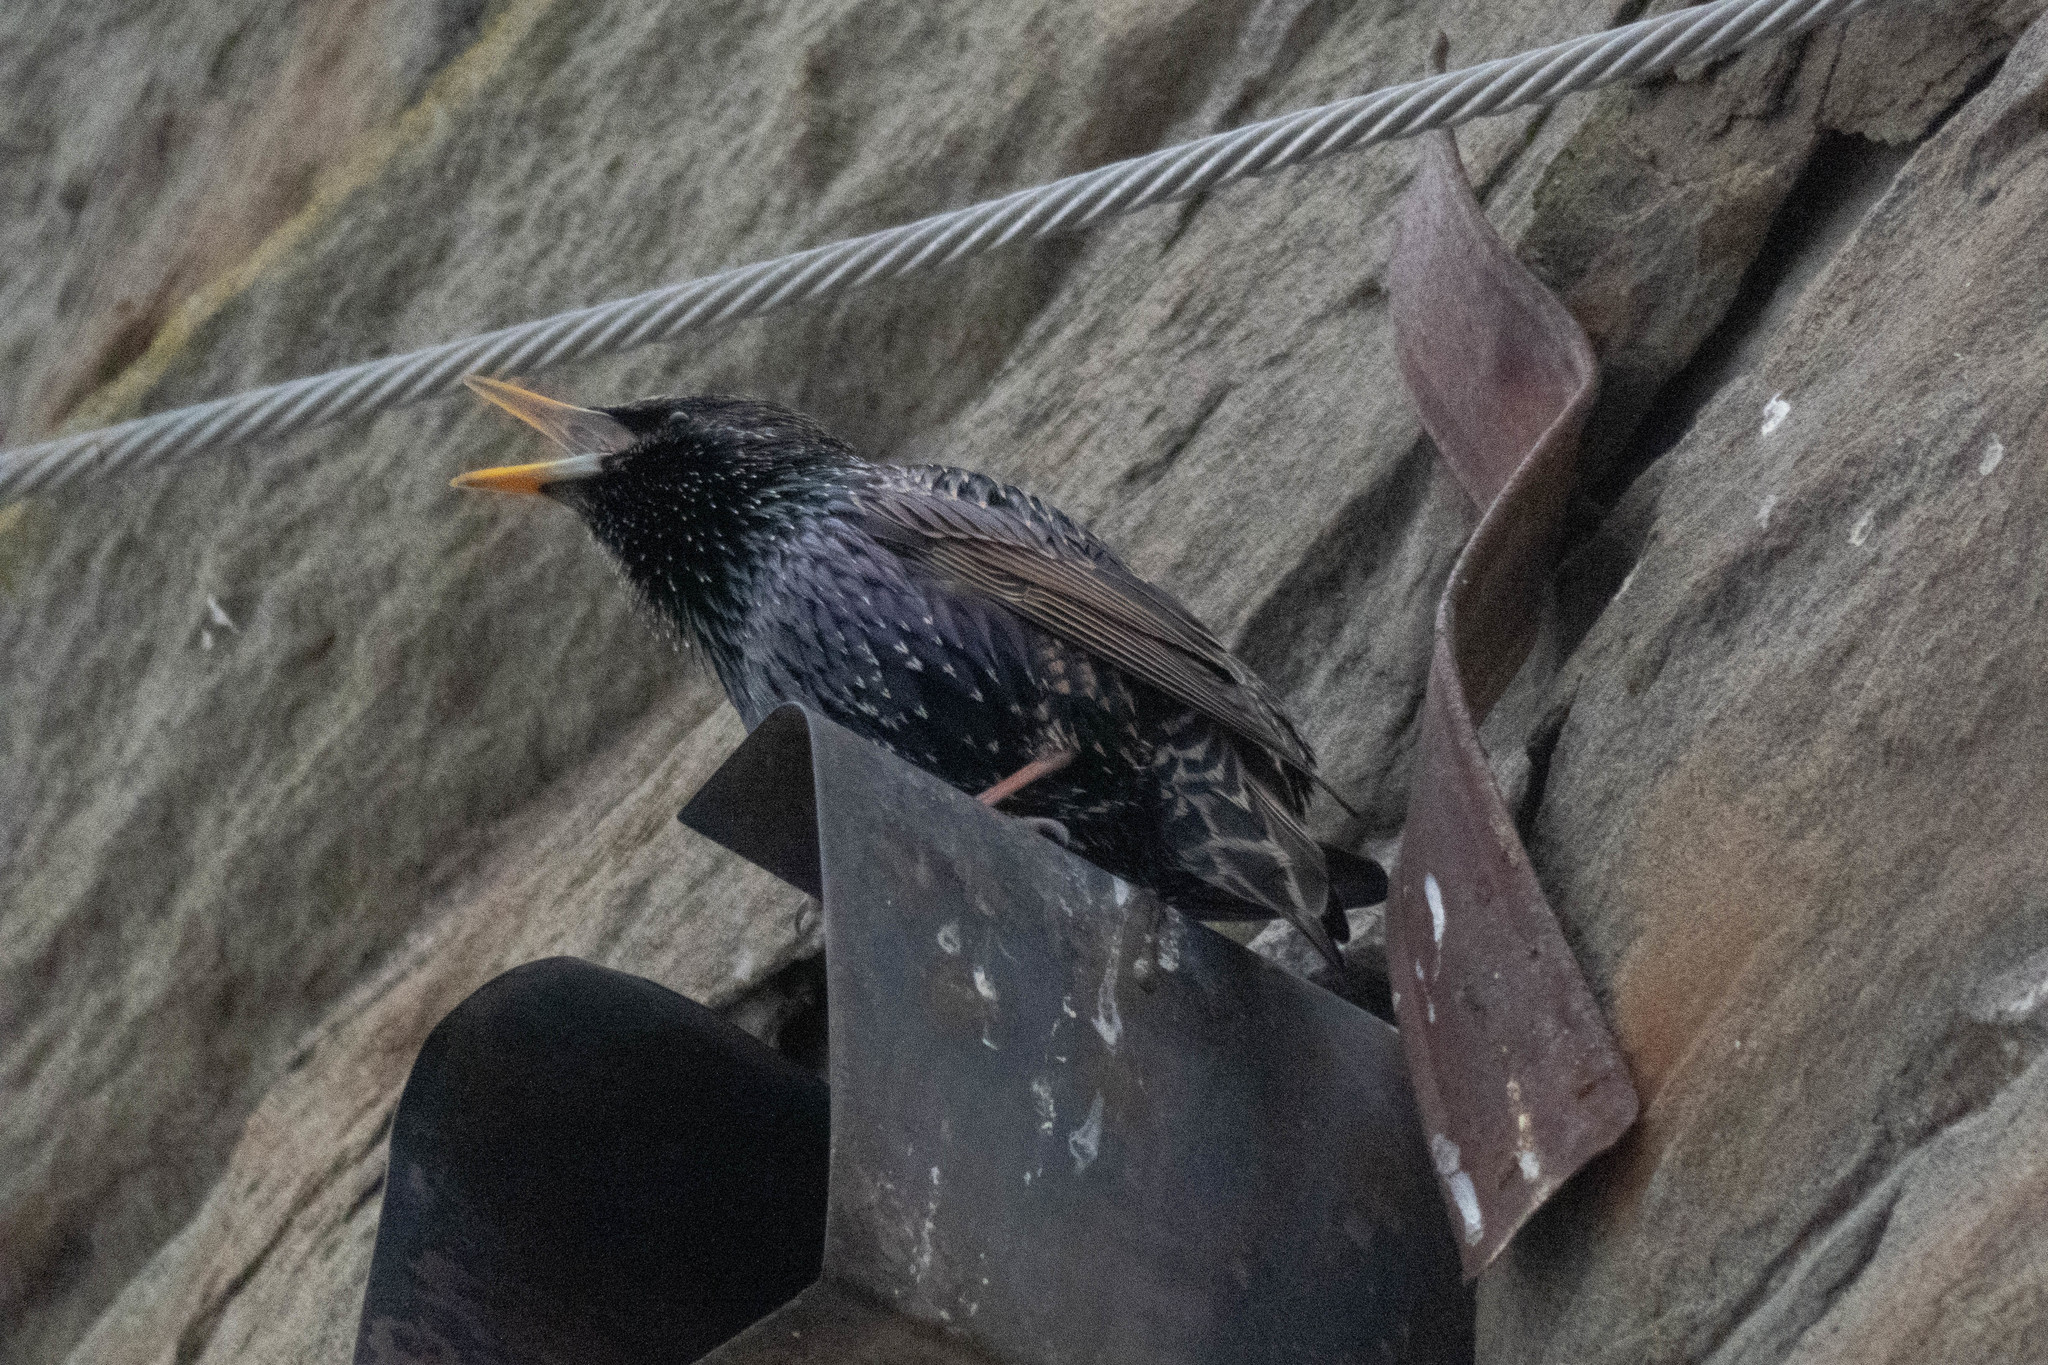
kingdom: Animalia
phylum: Chordata
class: Aves
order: Passeriformes
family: Sturnidae
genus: Sturnus
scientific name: Sturnus vulgaris
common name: Common starling
